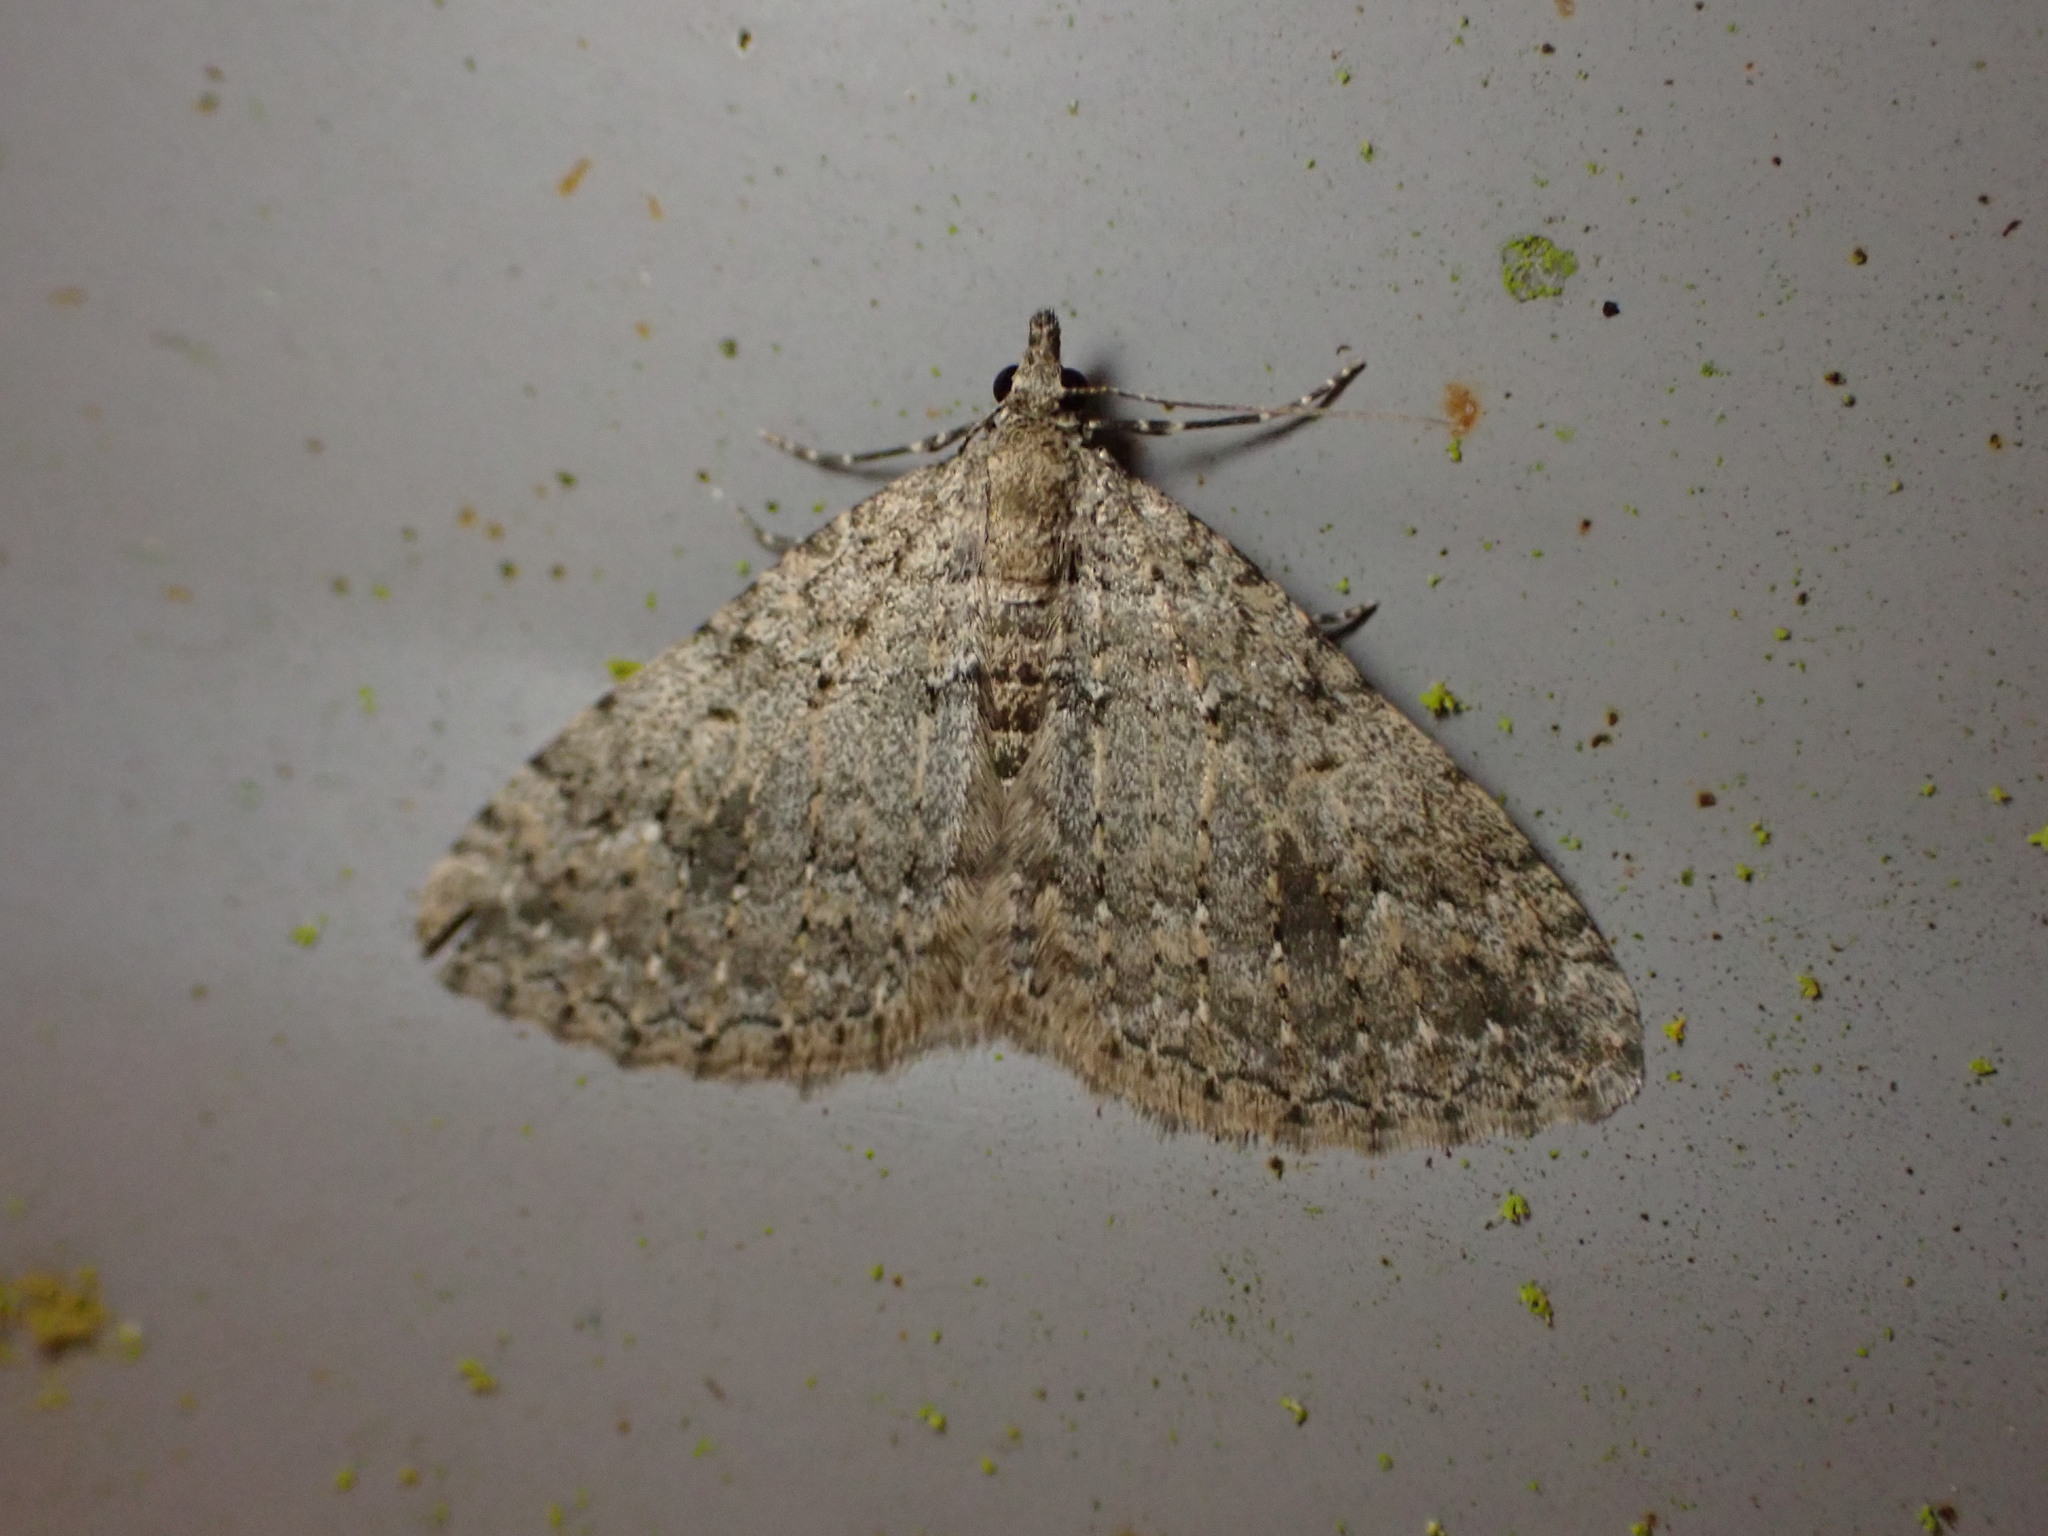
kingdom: Animalia
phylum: Arthropoda
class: Insecta
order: Lepidoptera
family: Geometridae
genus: Helastia
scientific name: Helastia semisignata
